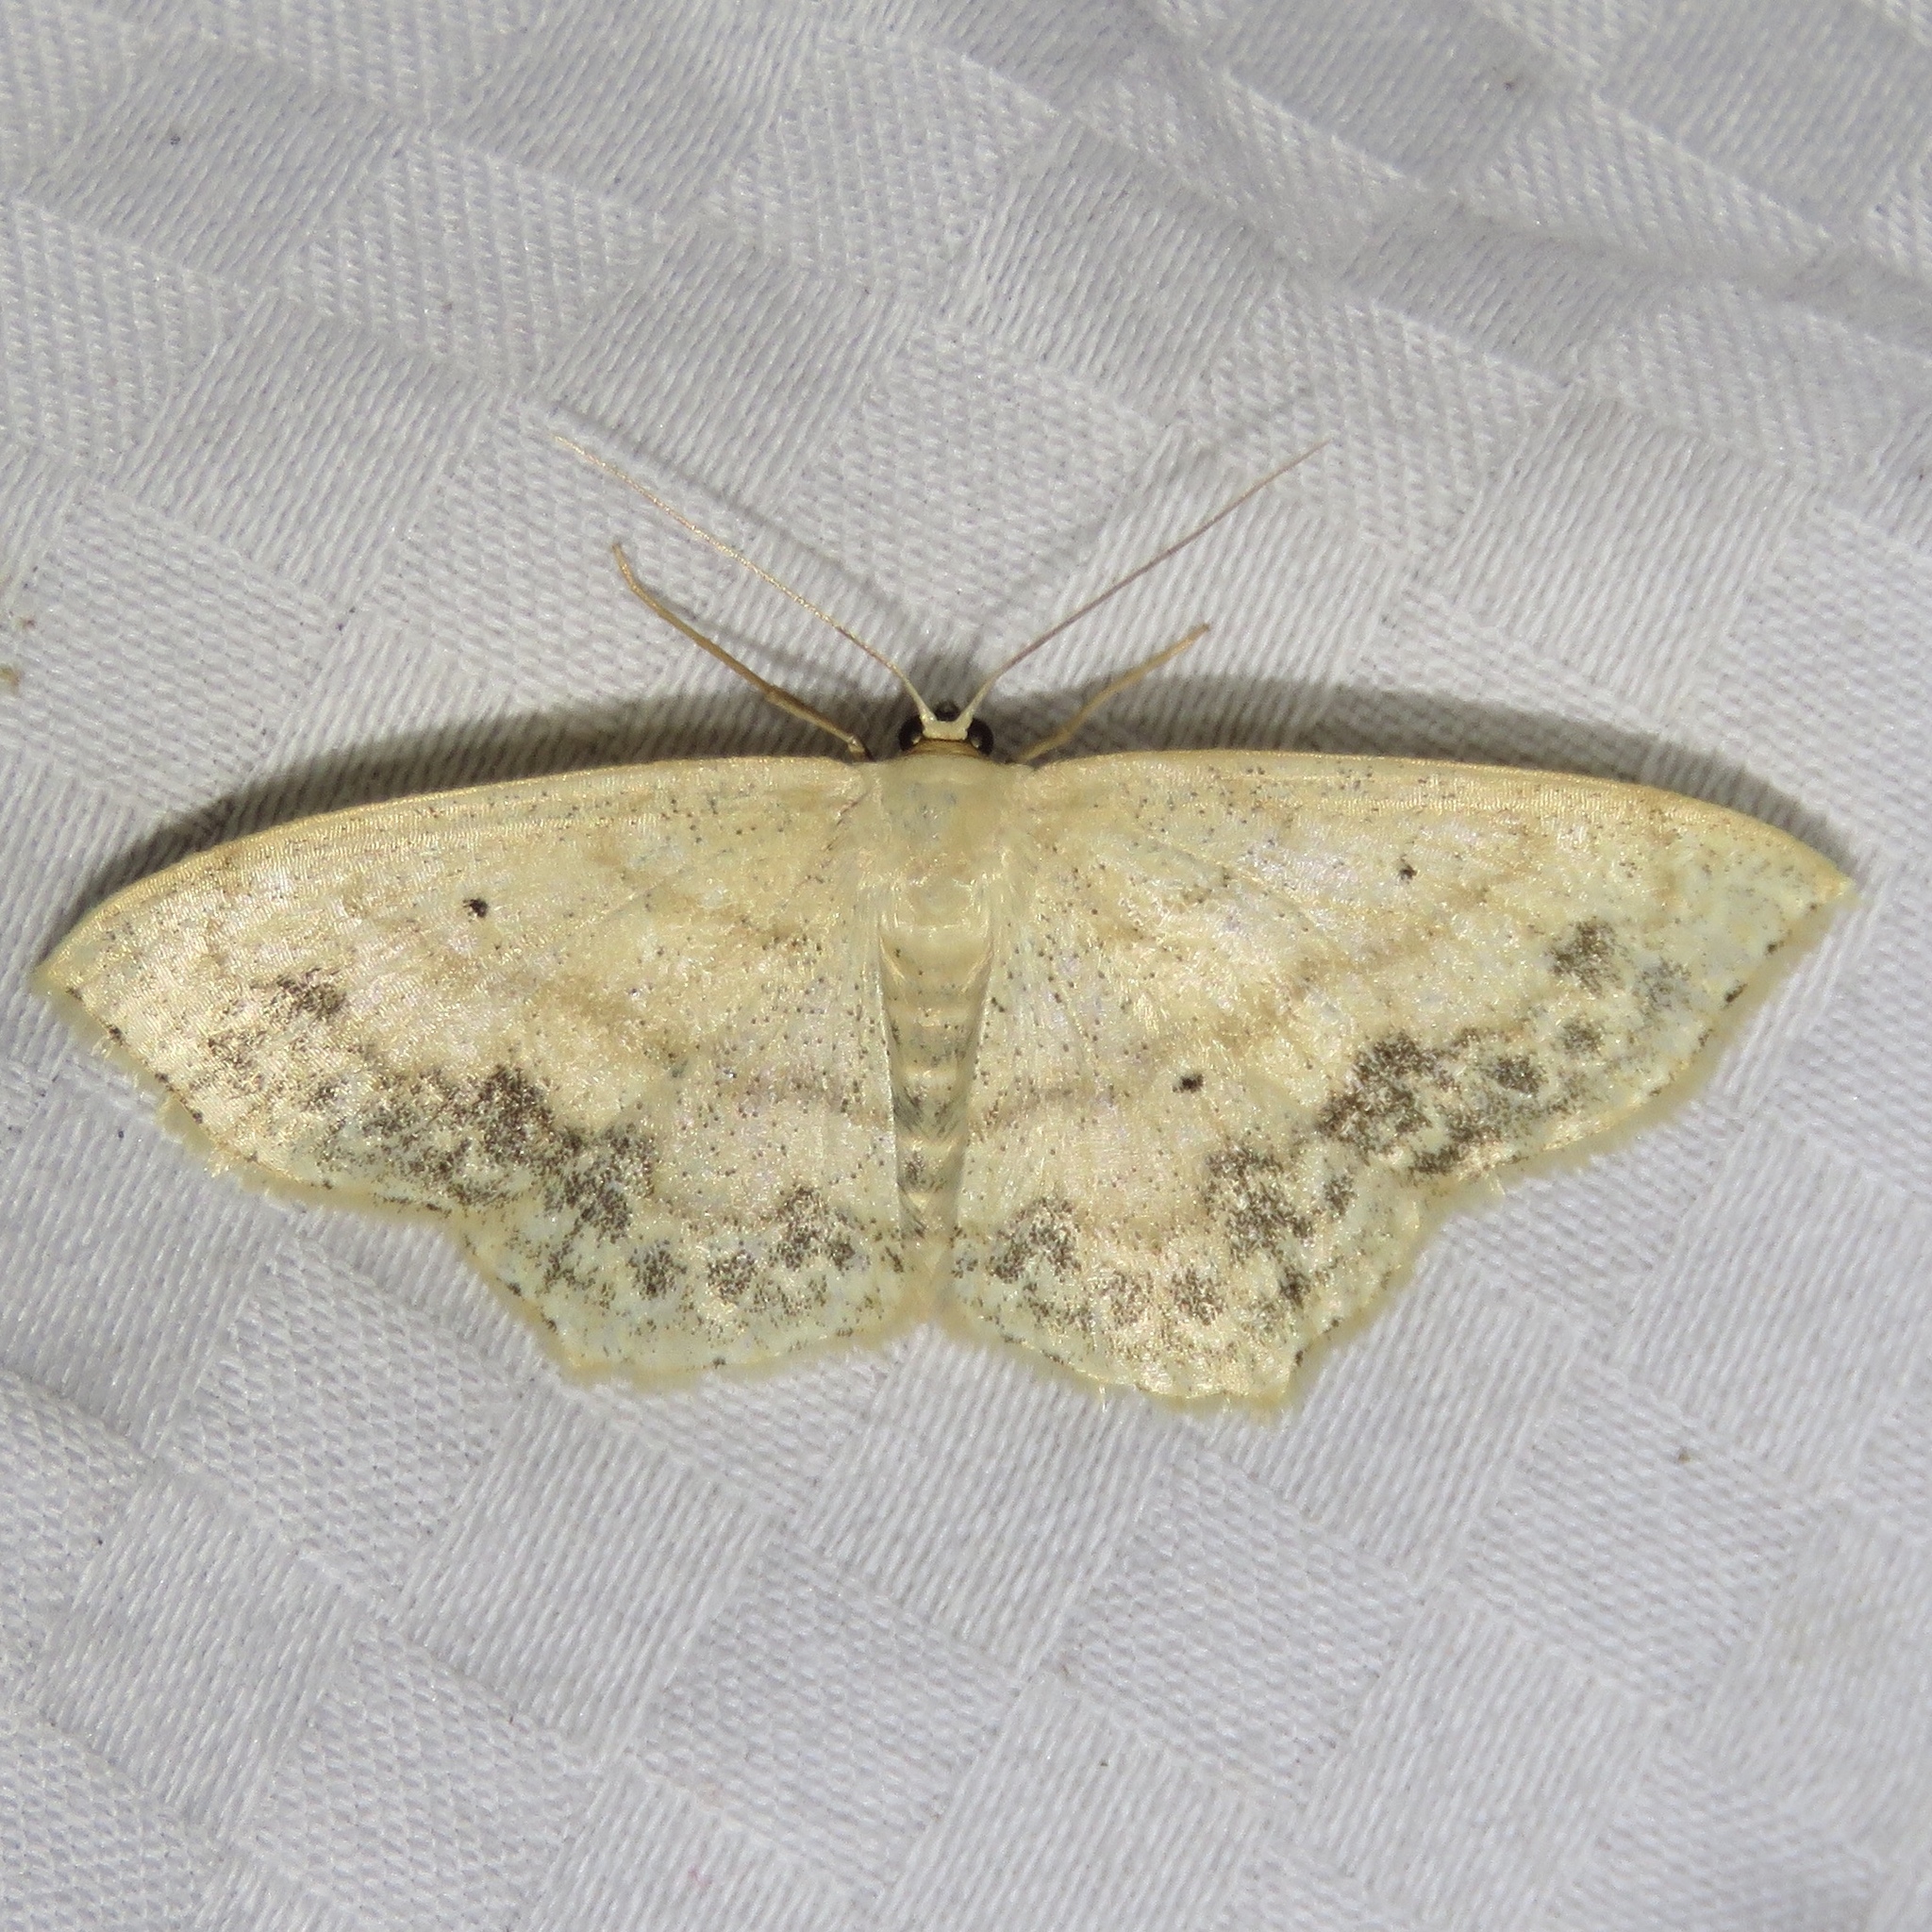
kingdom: Animalia
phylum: Arthropoda
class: Insecta
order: Lepidoptera
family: Geometridae
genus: Scopula
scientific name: Scopula limboundata
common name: Large lace border
